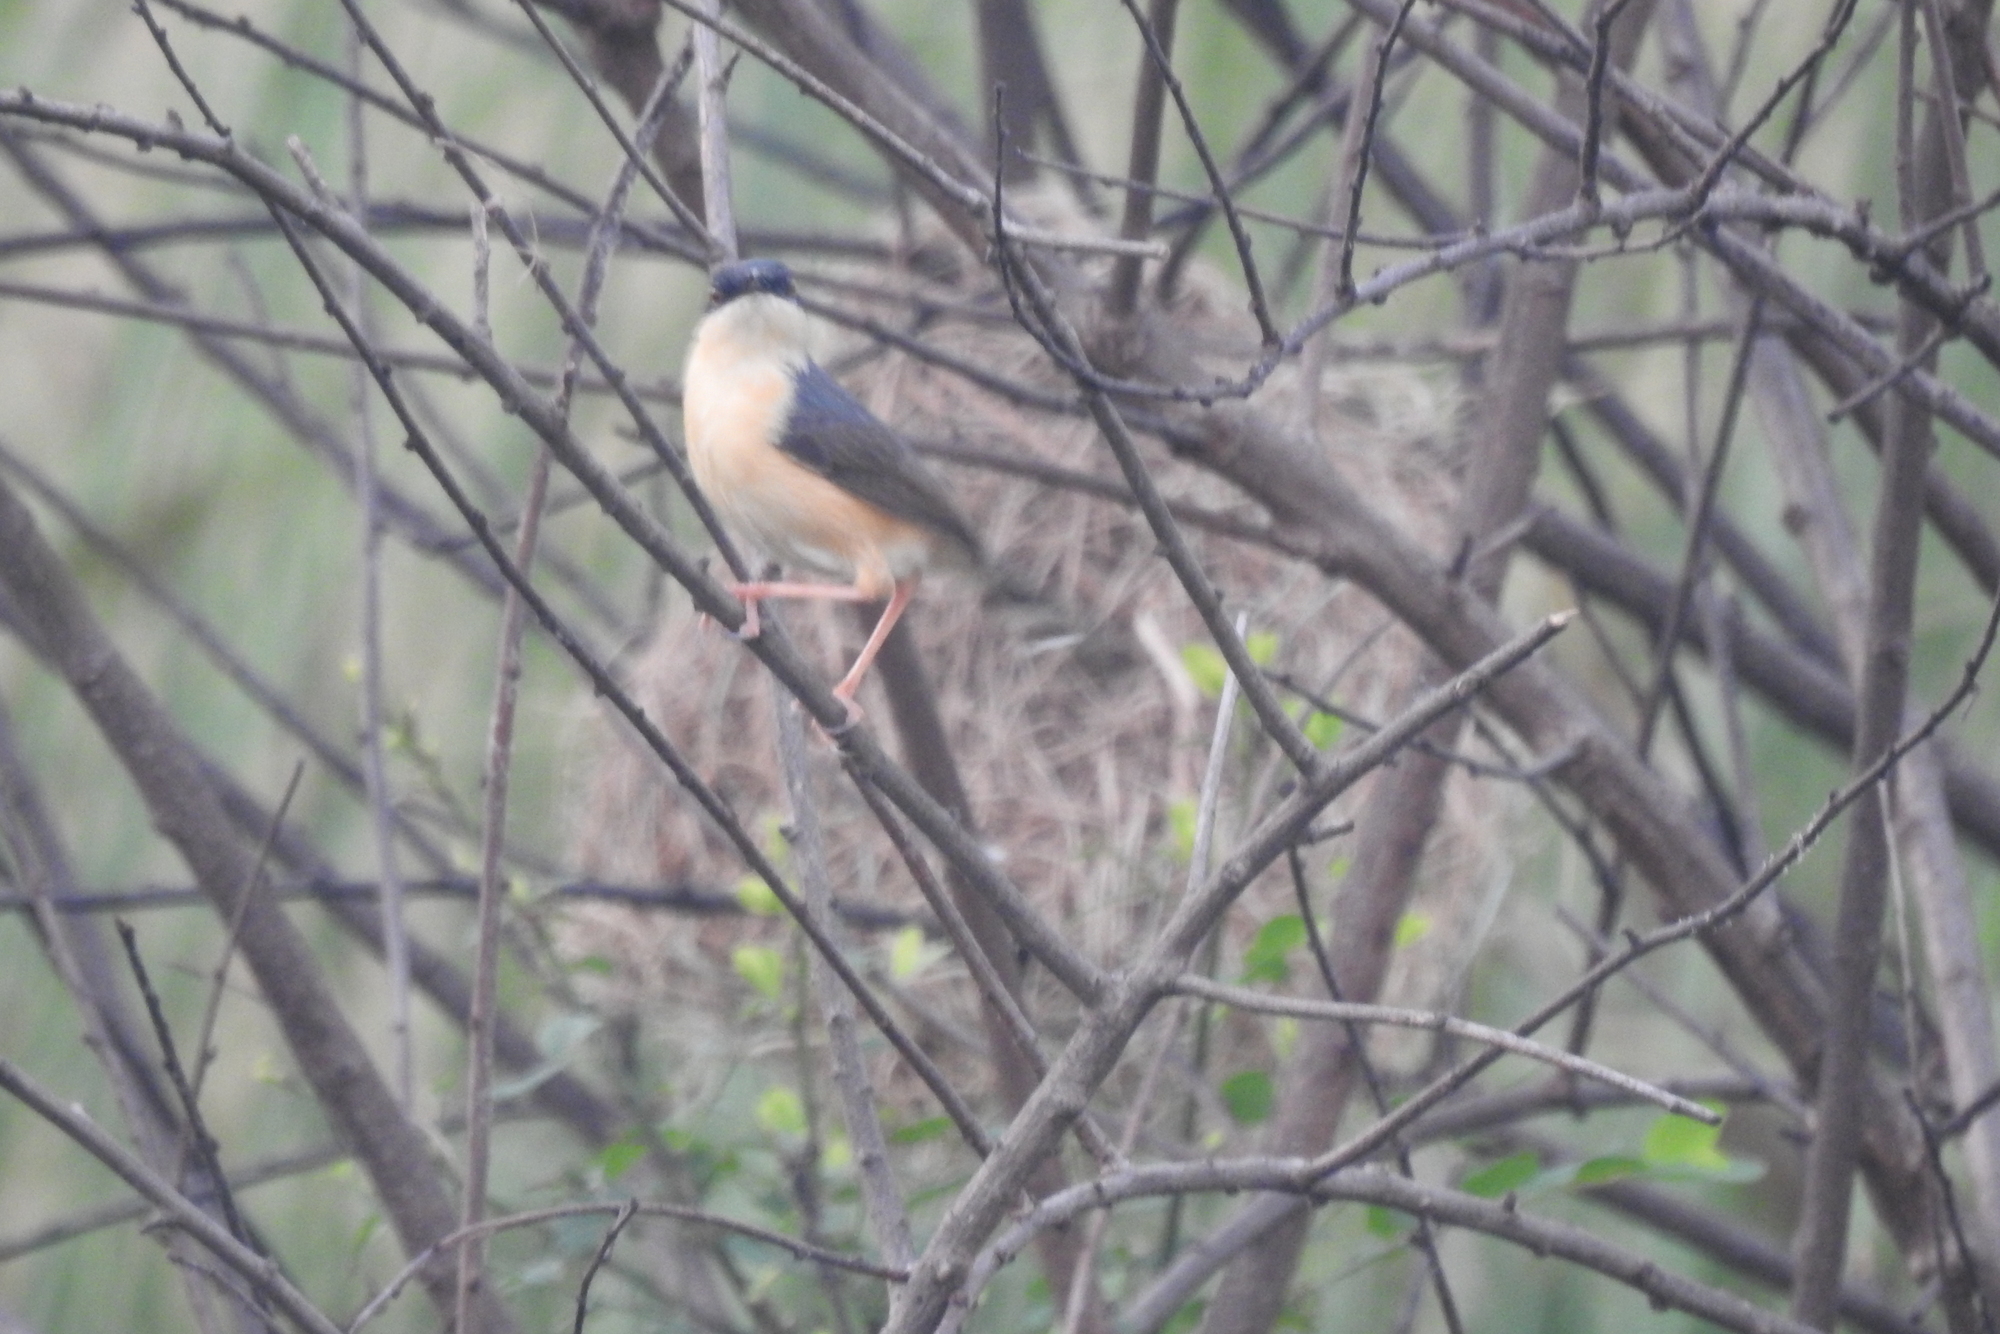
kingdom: Animalia
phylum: Chordata
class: Aves
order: Passeriformes
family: Cisticolidae
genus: Prinia
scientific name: Prinia socialis
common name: Ashy prinia
